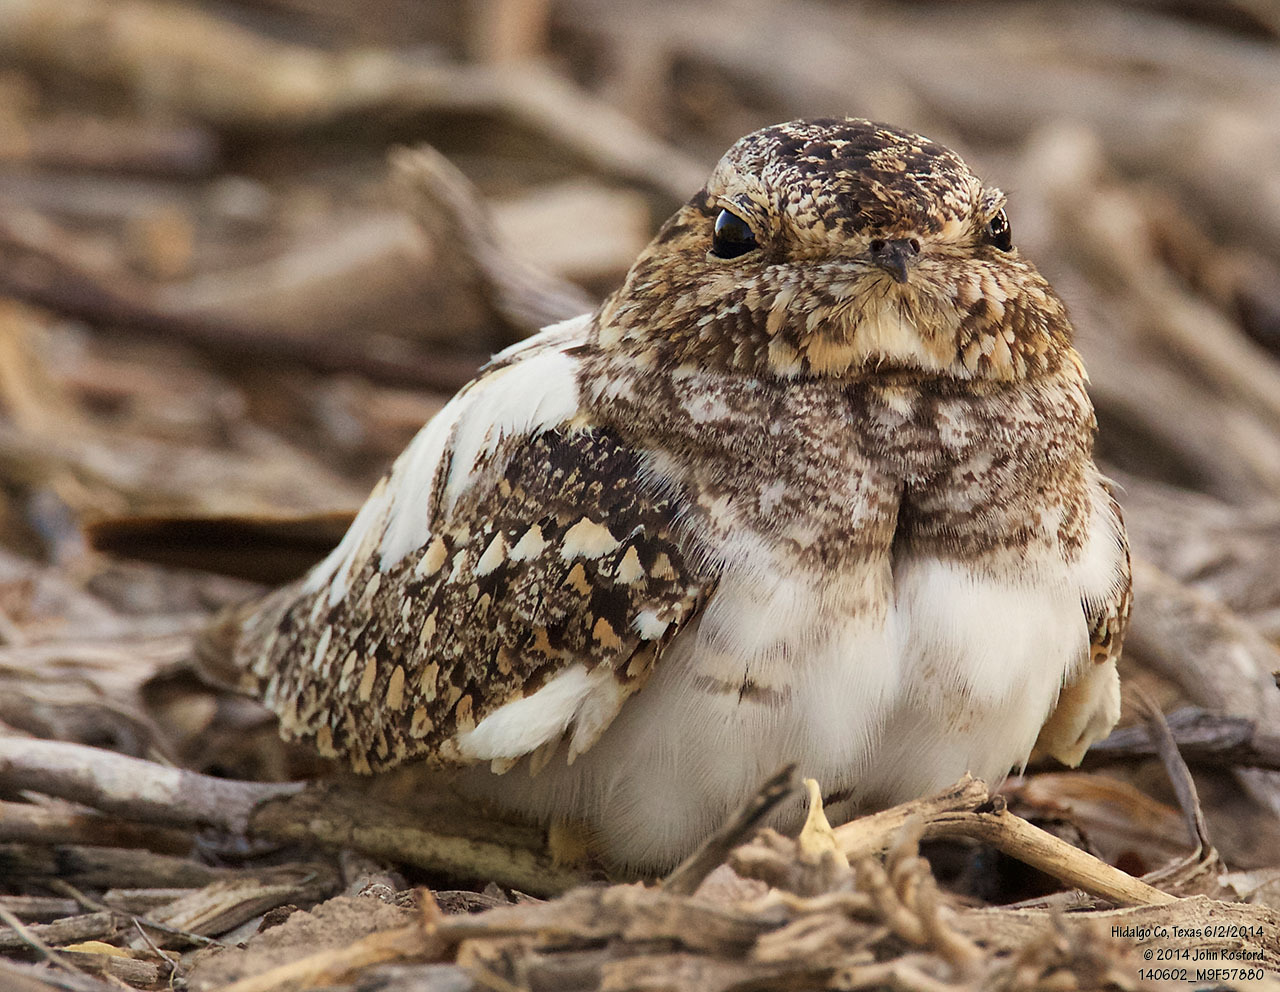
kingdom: Animalia
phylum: Chordata
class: Aves
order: Caprimulgiformes
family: Caprimulgidae
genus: Chordeiles
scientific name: Chordeiles acutipennis
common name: Lesser nighthawk
